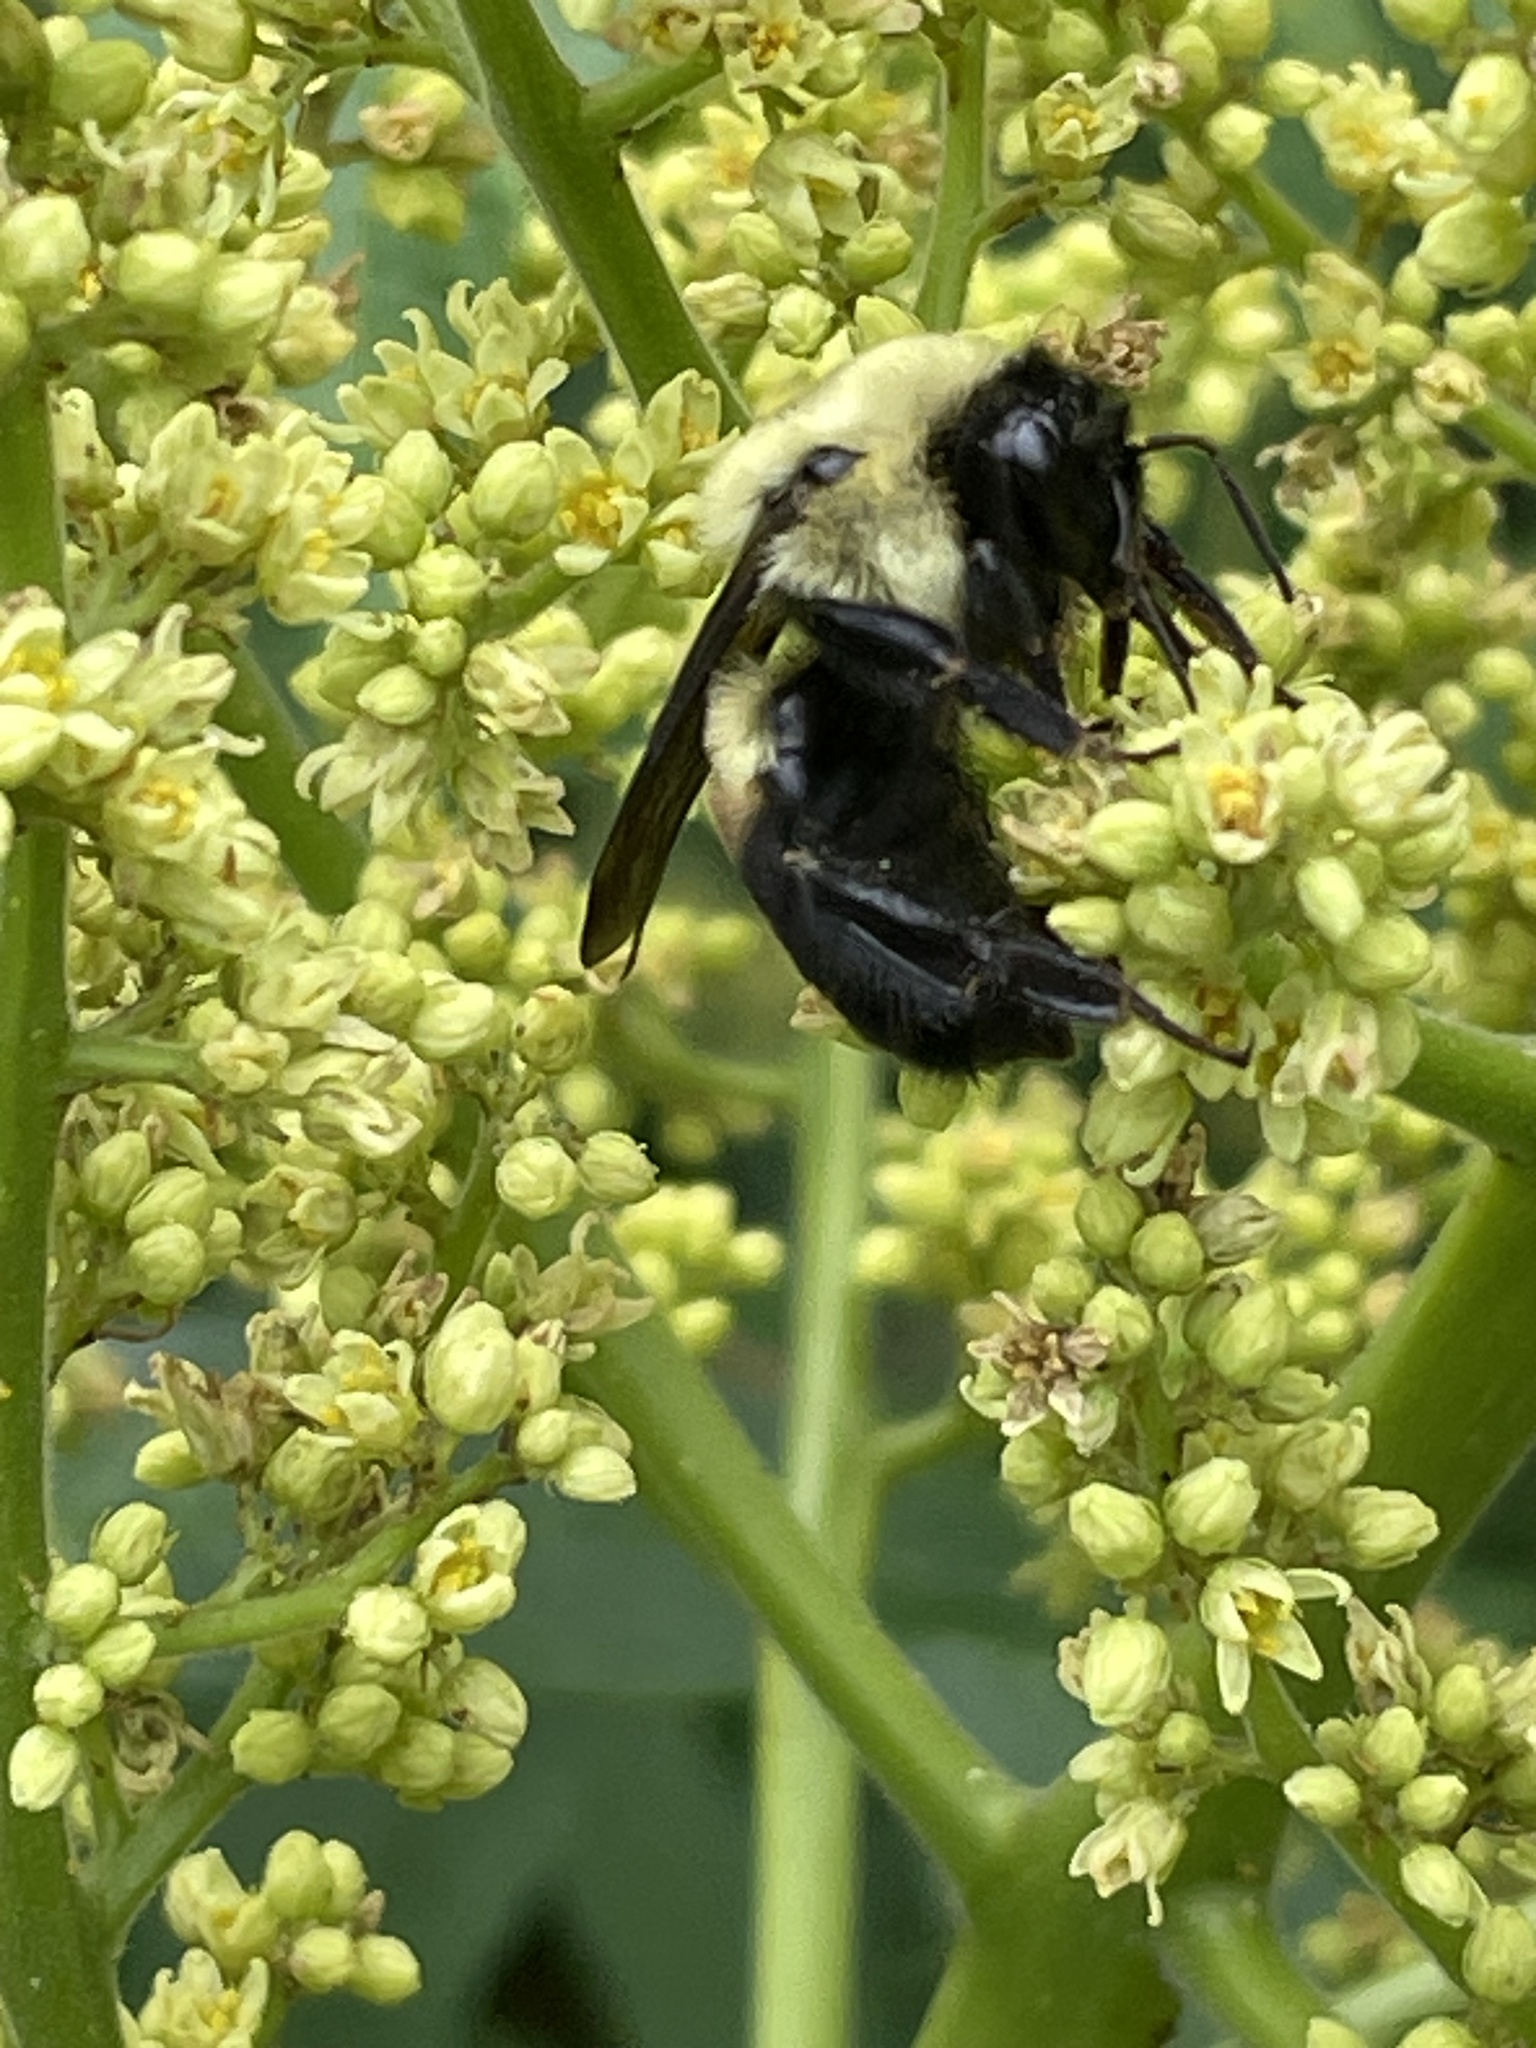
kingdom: Animalia
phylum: Arthropoda
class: Insecta
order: Hymenoptera
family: Apidae
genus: Bombus
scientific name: Bombus griseocollis
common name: Brown-belted bumble bee
